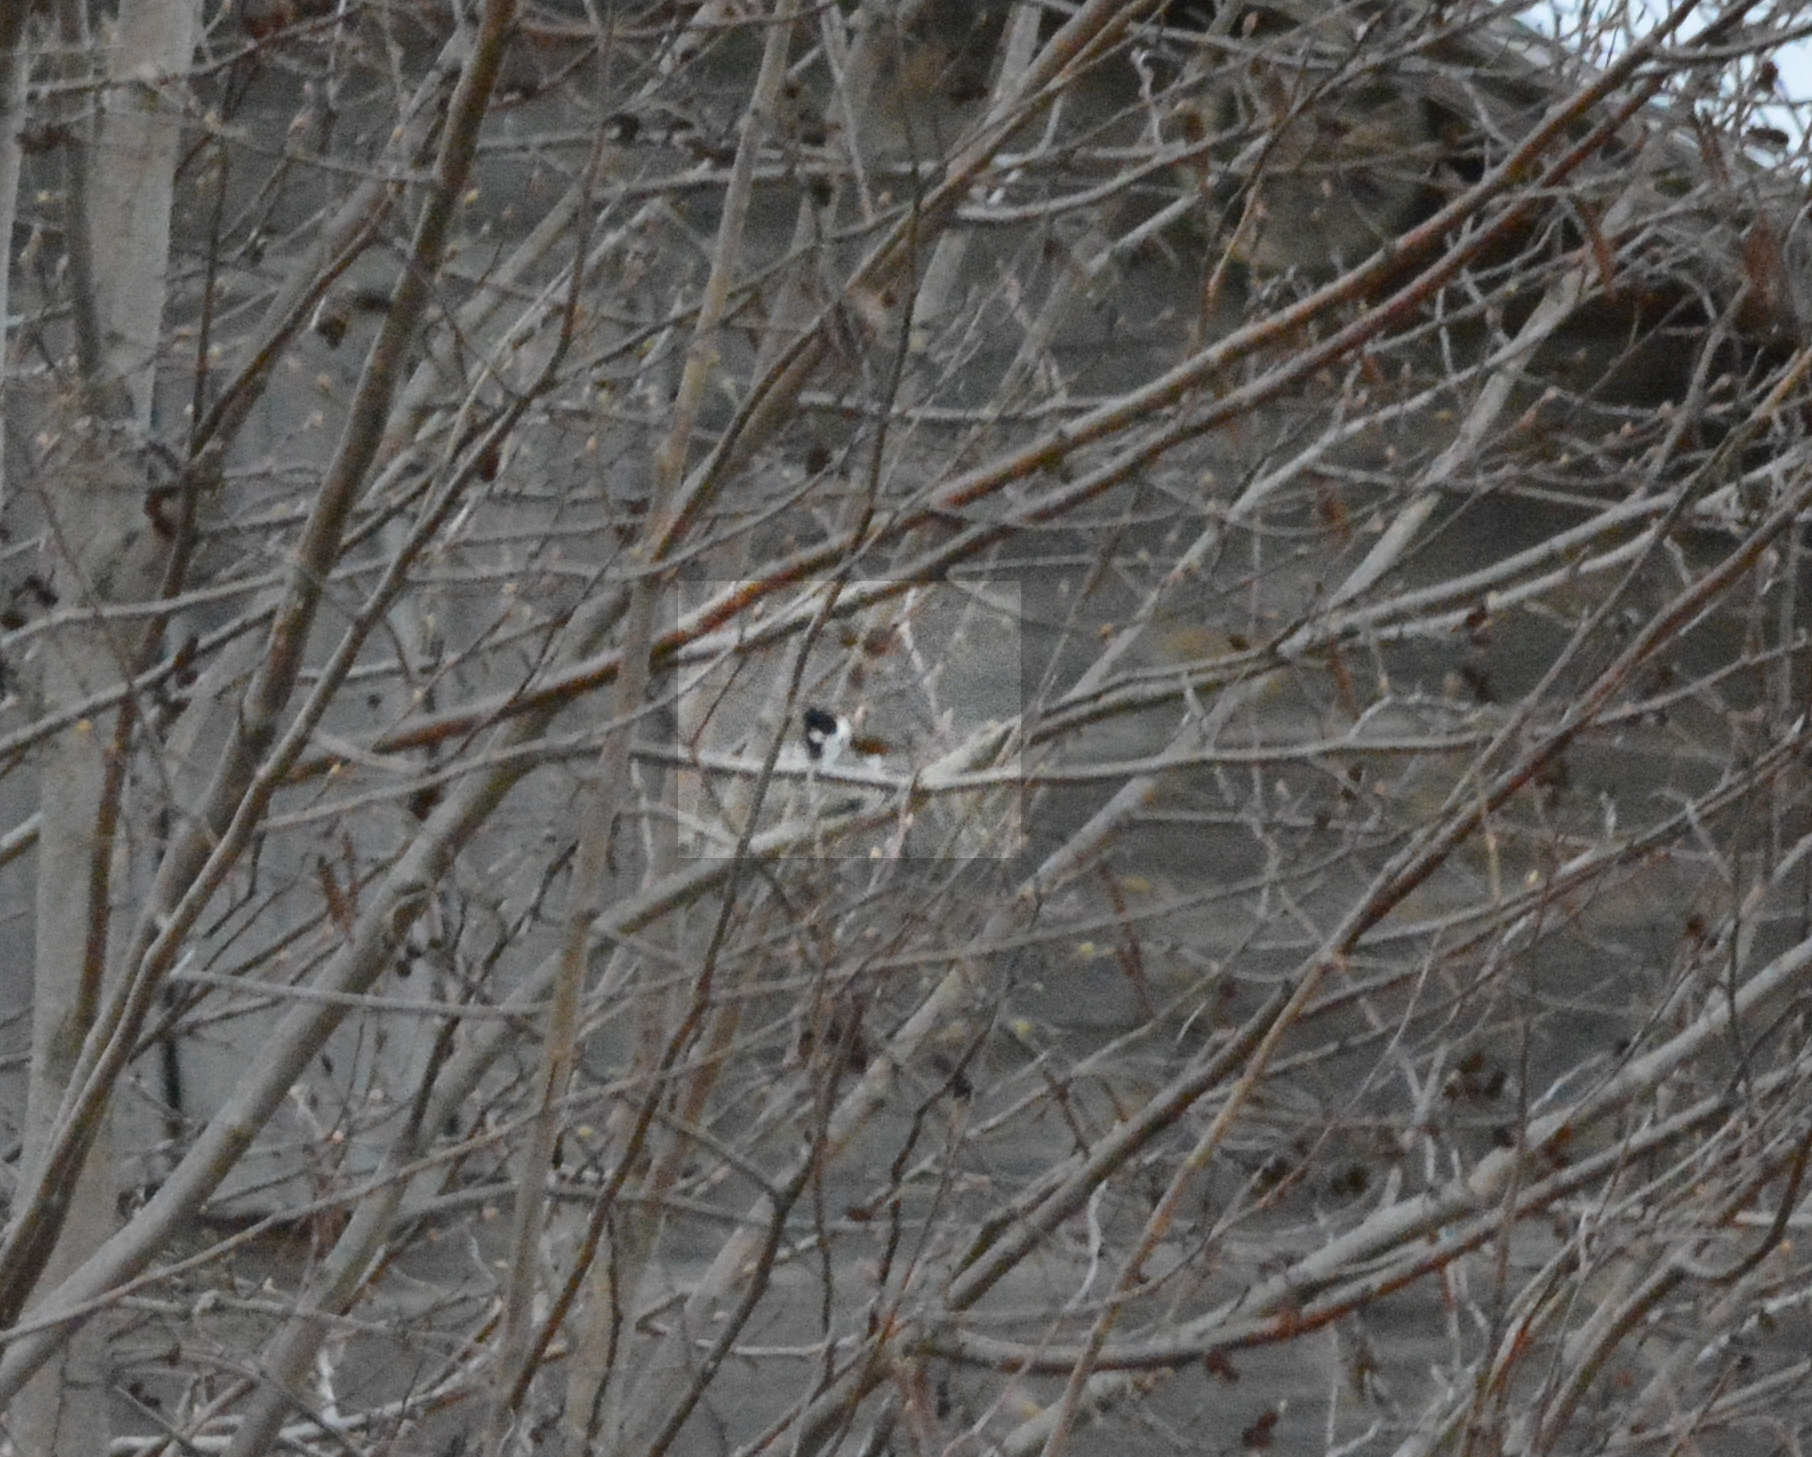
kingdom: Animalia
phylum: Chordata
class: Aves
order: Passeriformes
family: Emberizidae
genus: Emberiza
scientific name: Emberiza schoeniclus
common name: Reed bunting
